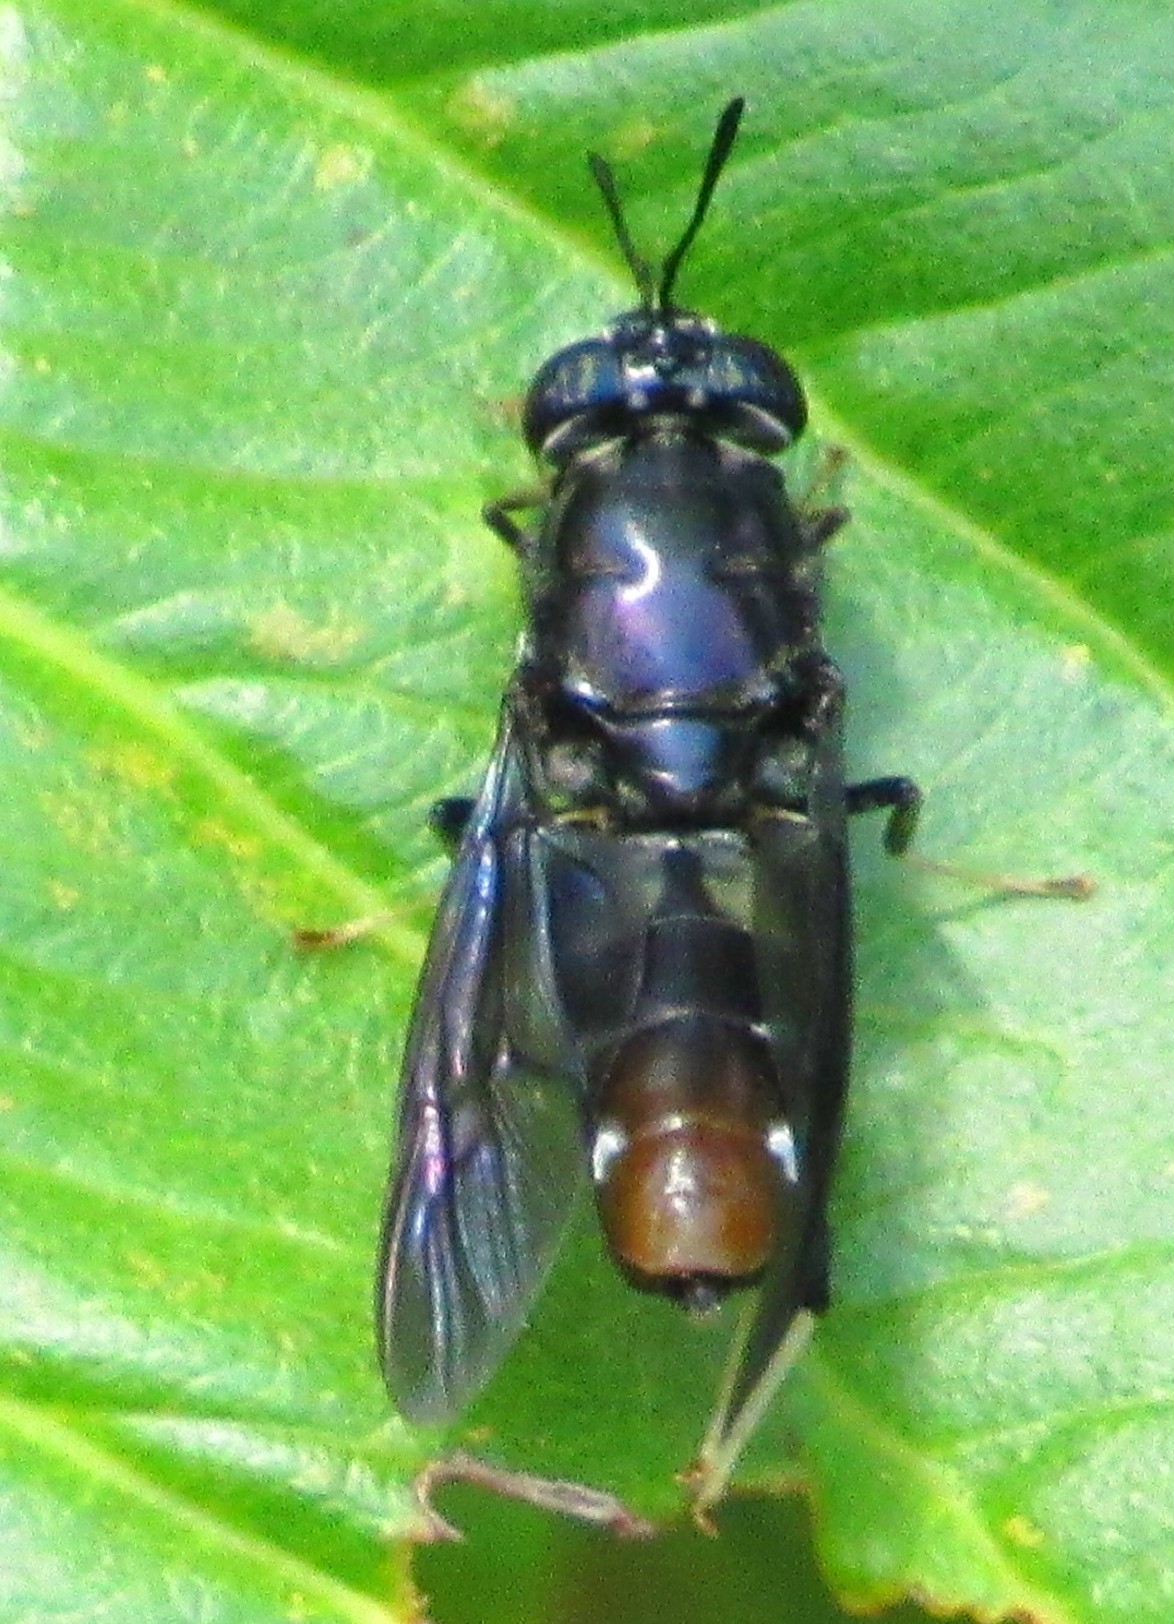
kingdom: Animalia
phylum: Arthropoda
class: Insecta
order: Diptera
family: Stratiomyidae
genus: Hermetia
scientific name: Hermetia illucens
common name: Black soldier fly
